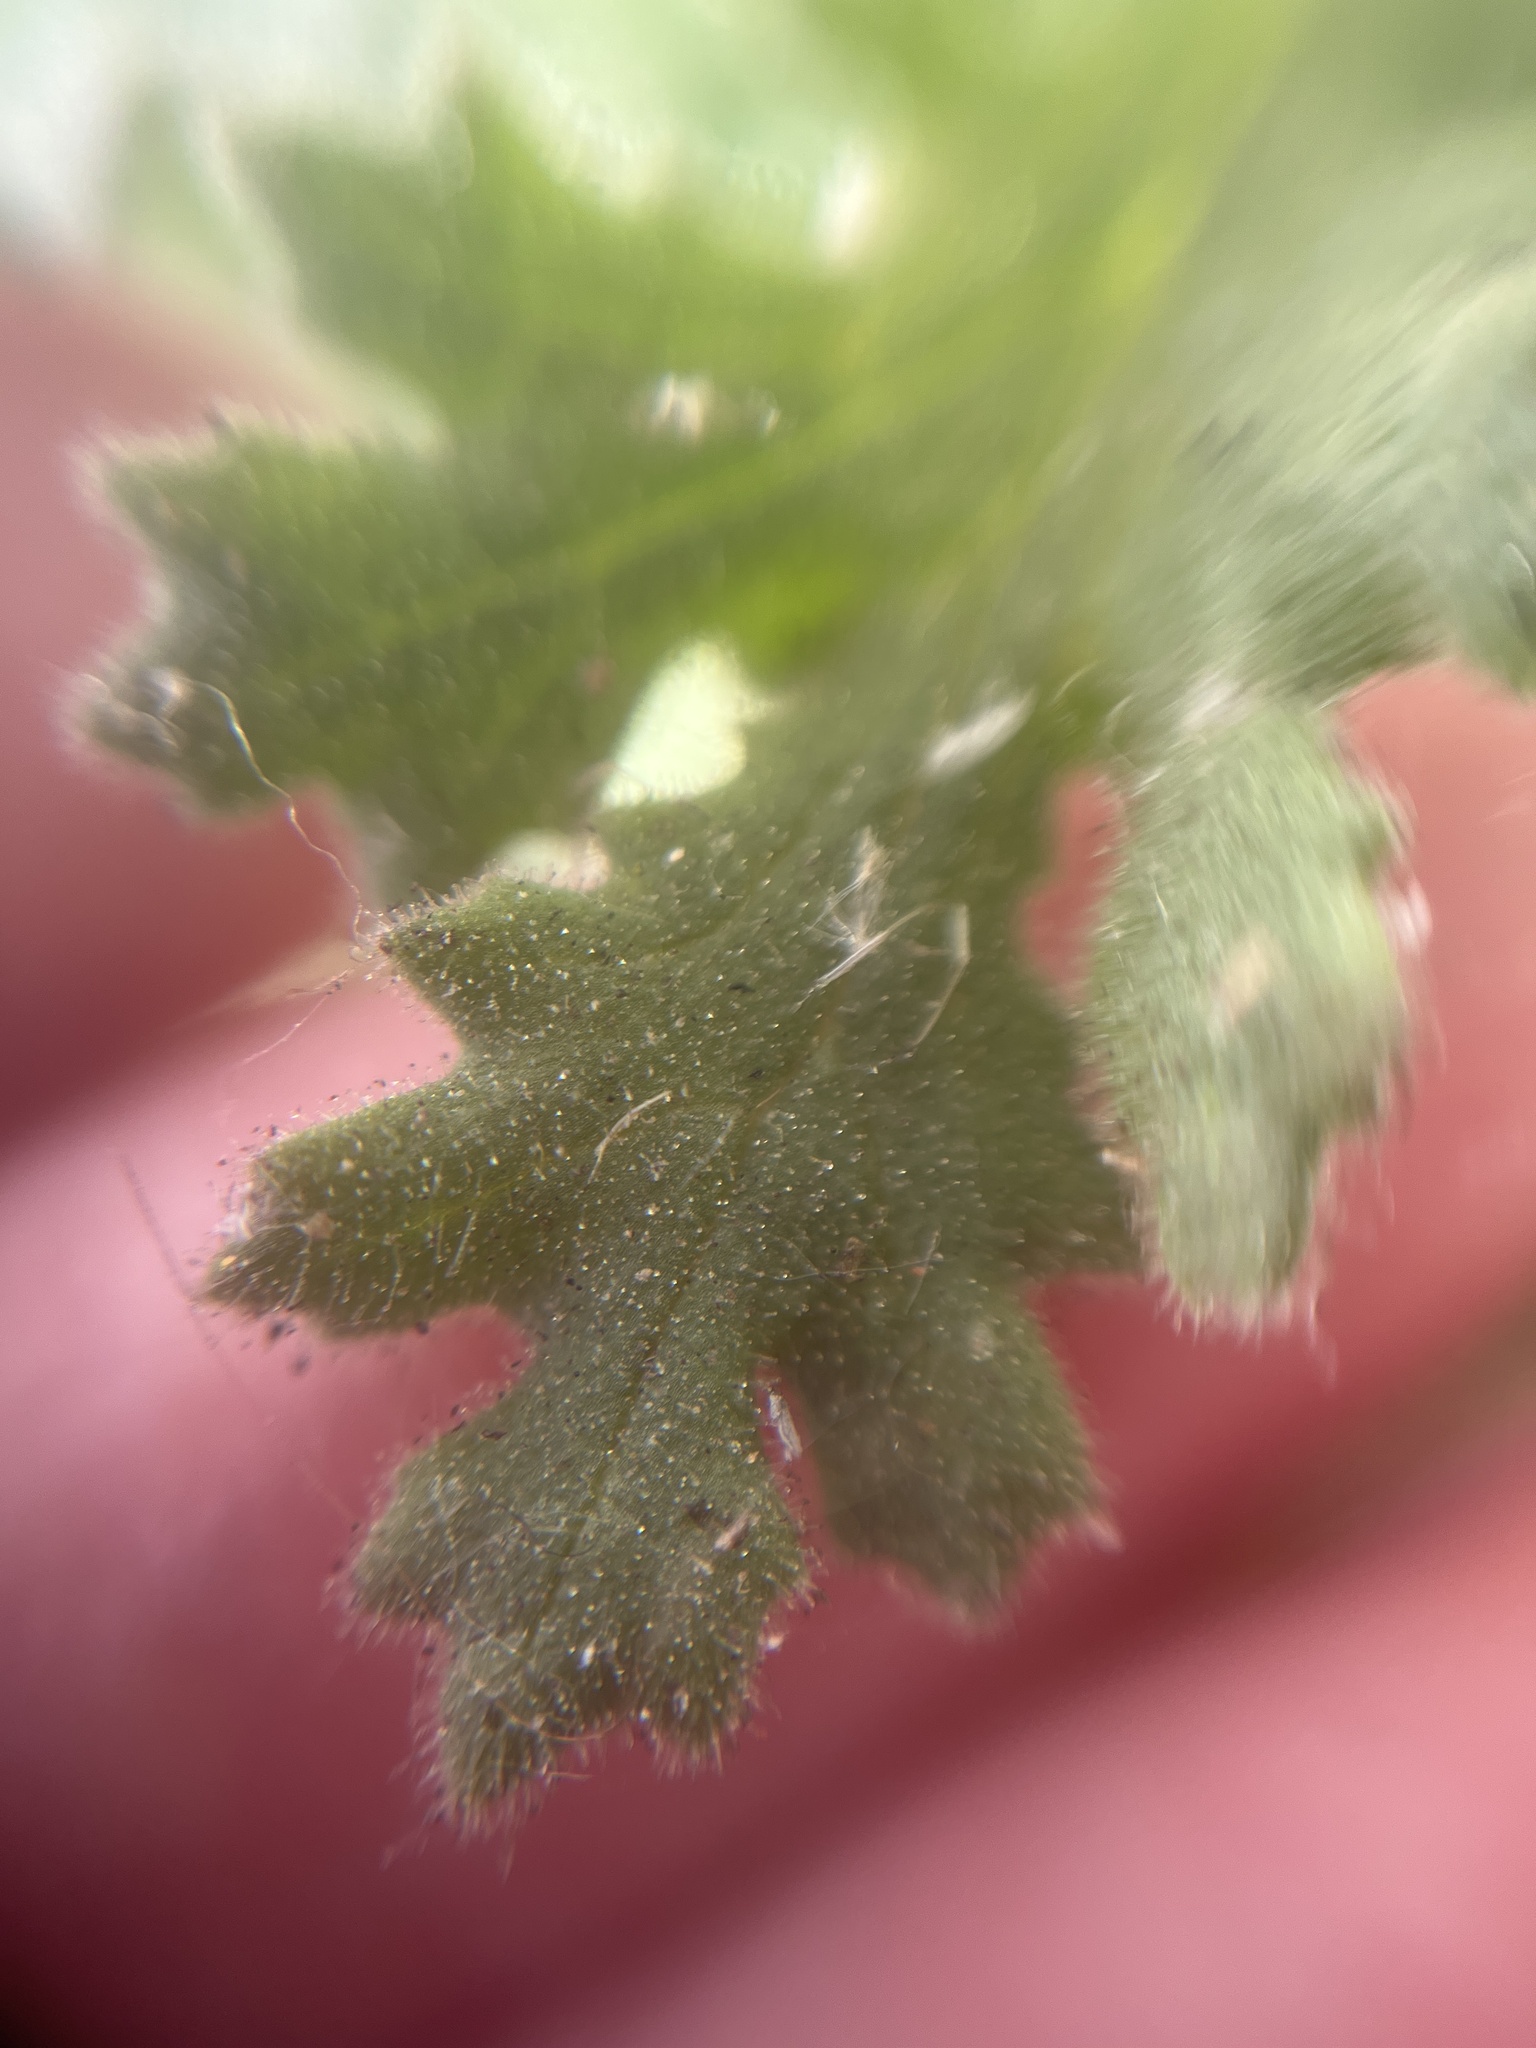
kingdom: Plantae
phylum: Tracheophyta
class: Magnoliopsida
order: Asterales
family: Asteraceae
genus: Senecio
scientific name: Senecio viscosus
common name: Sticky groundsel
